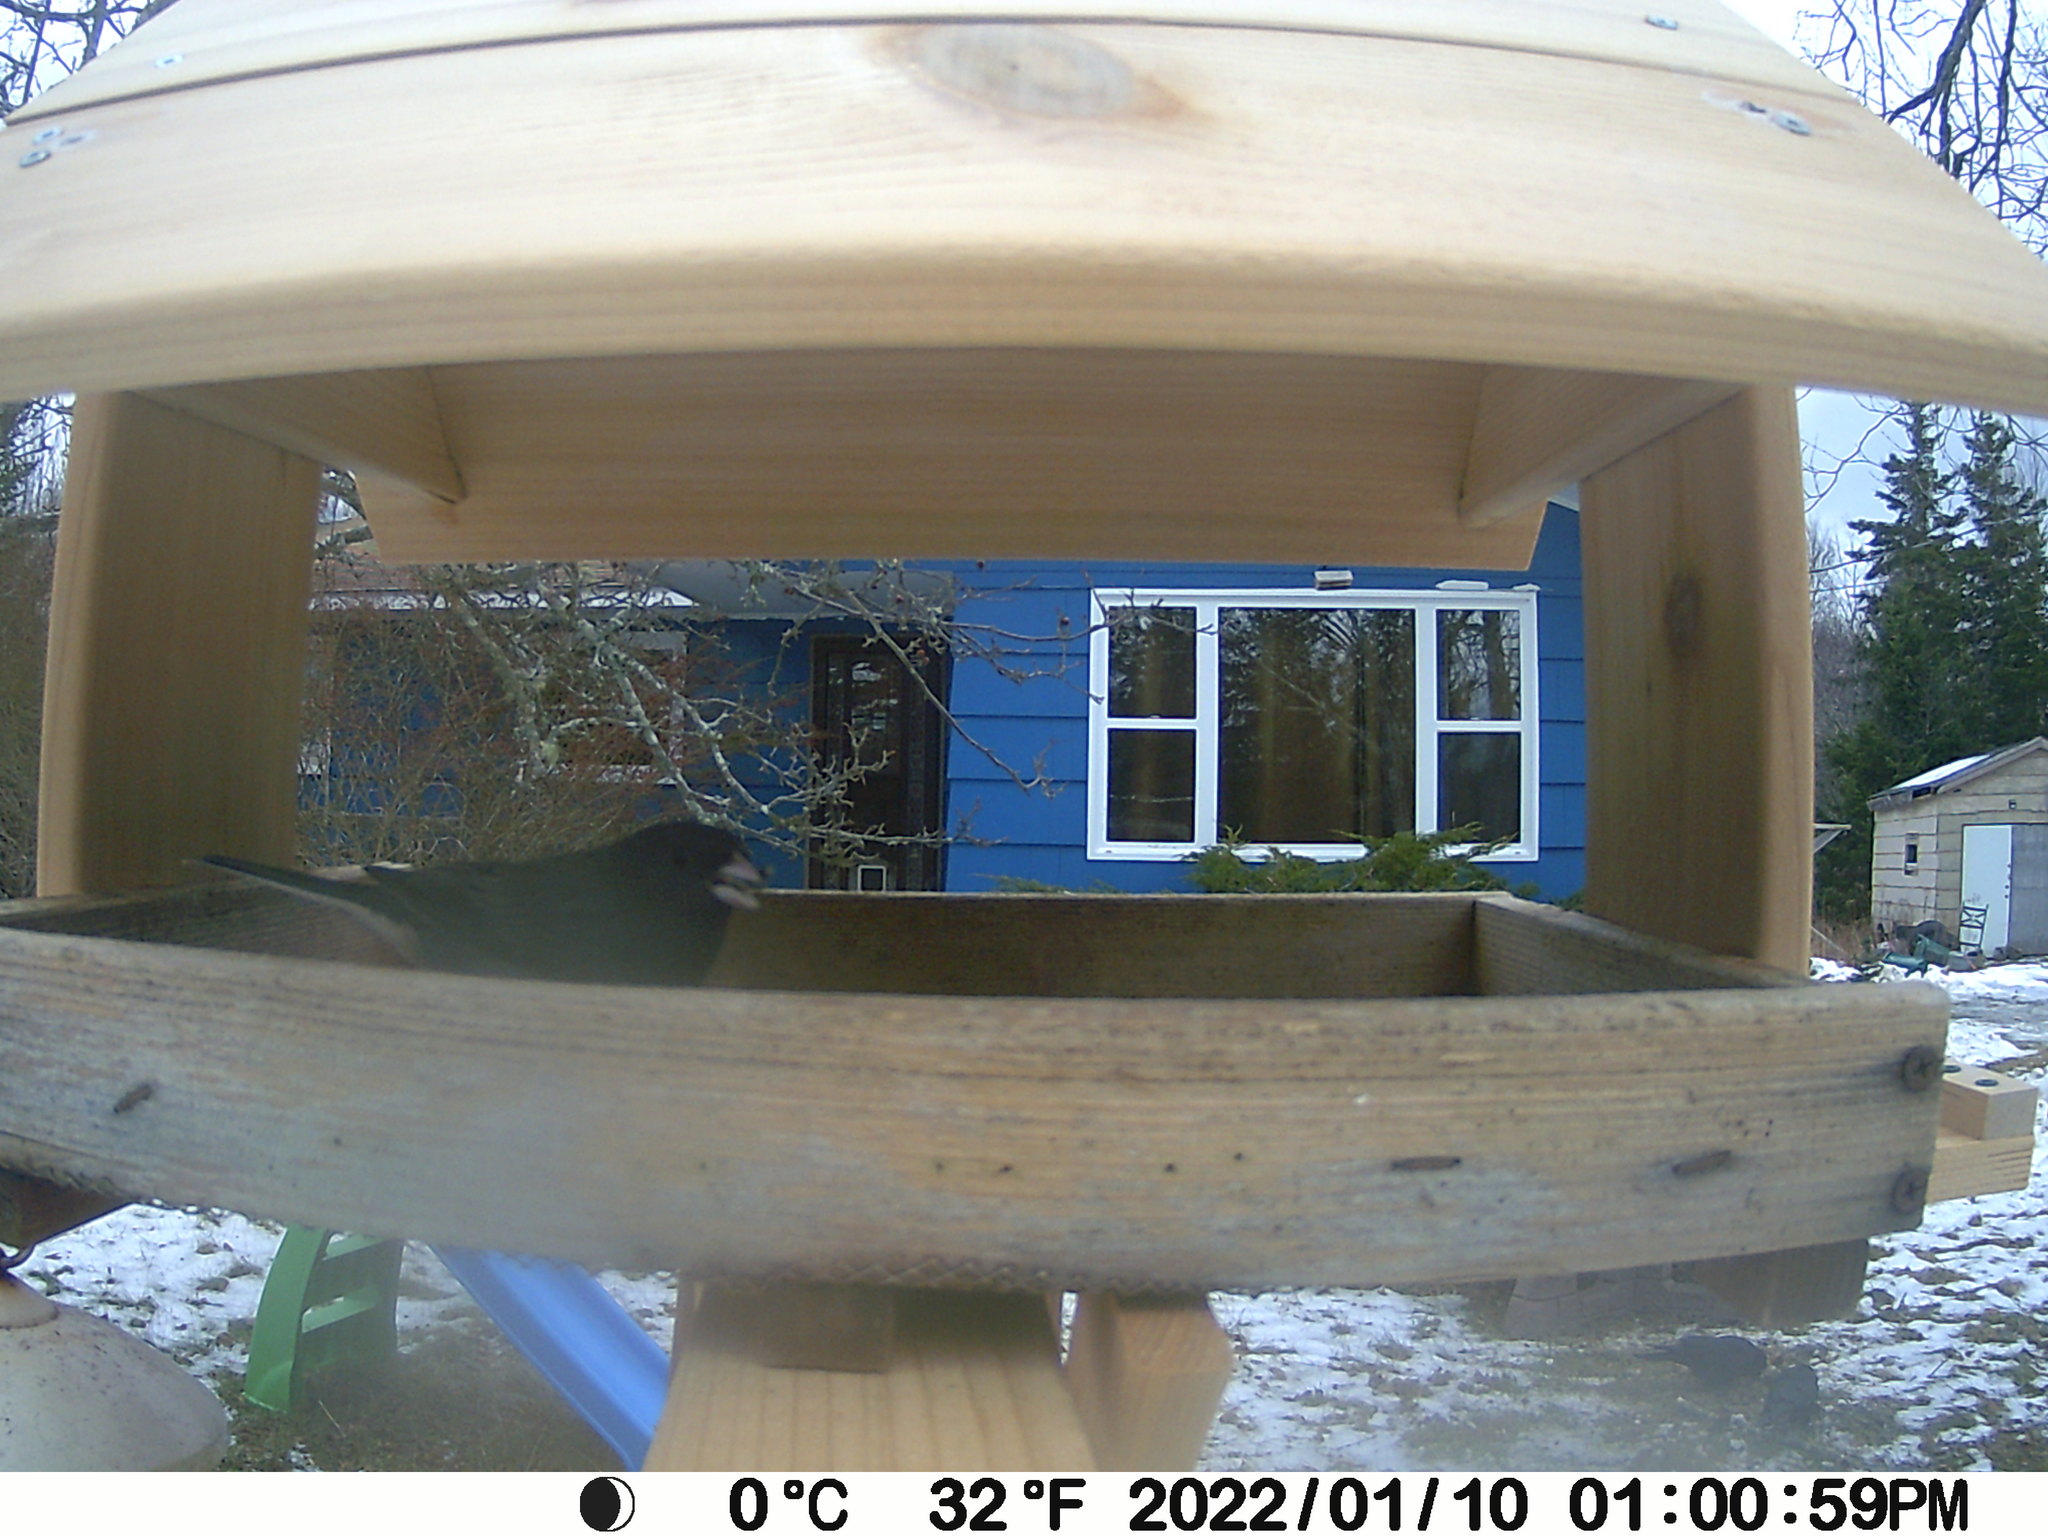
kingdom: Animalia
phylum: Chordata
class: Aves
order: Passeriformes
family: Passerellidae
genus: Junco
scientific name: Junco hyemalis
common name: Dark-eyed junco
